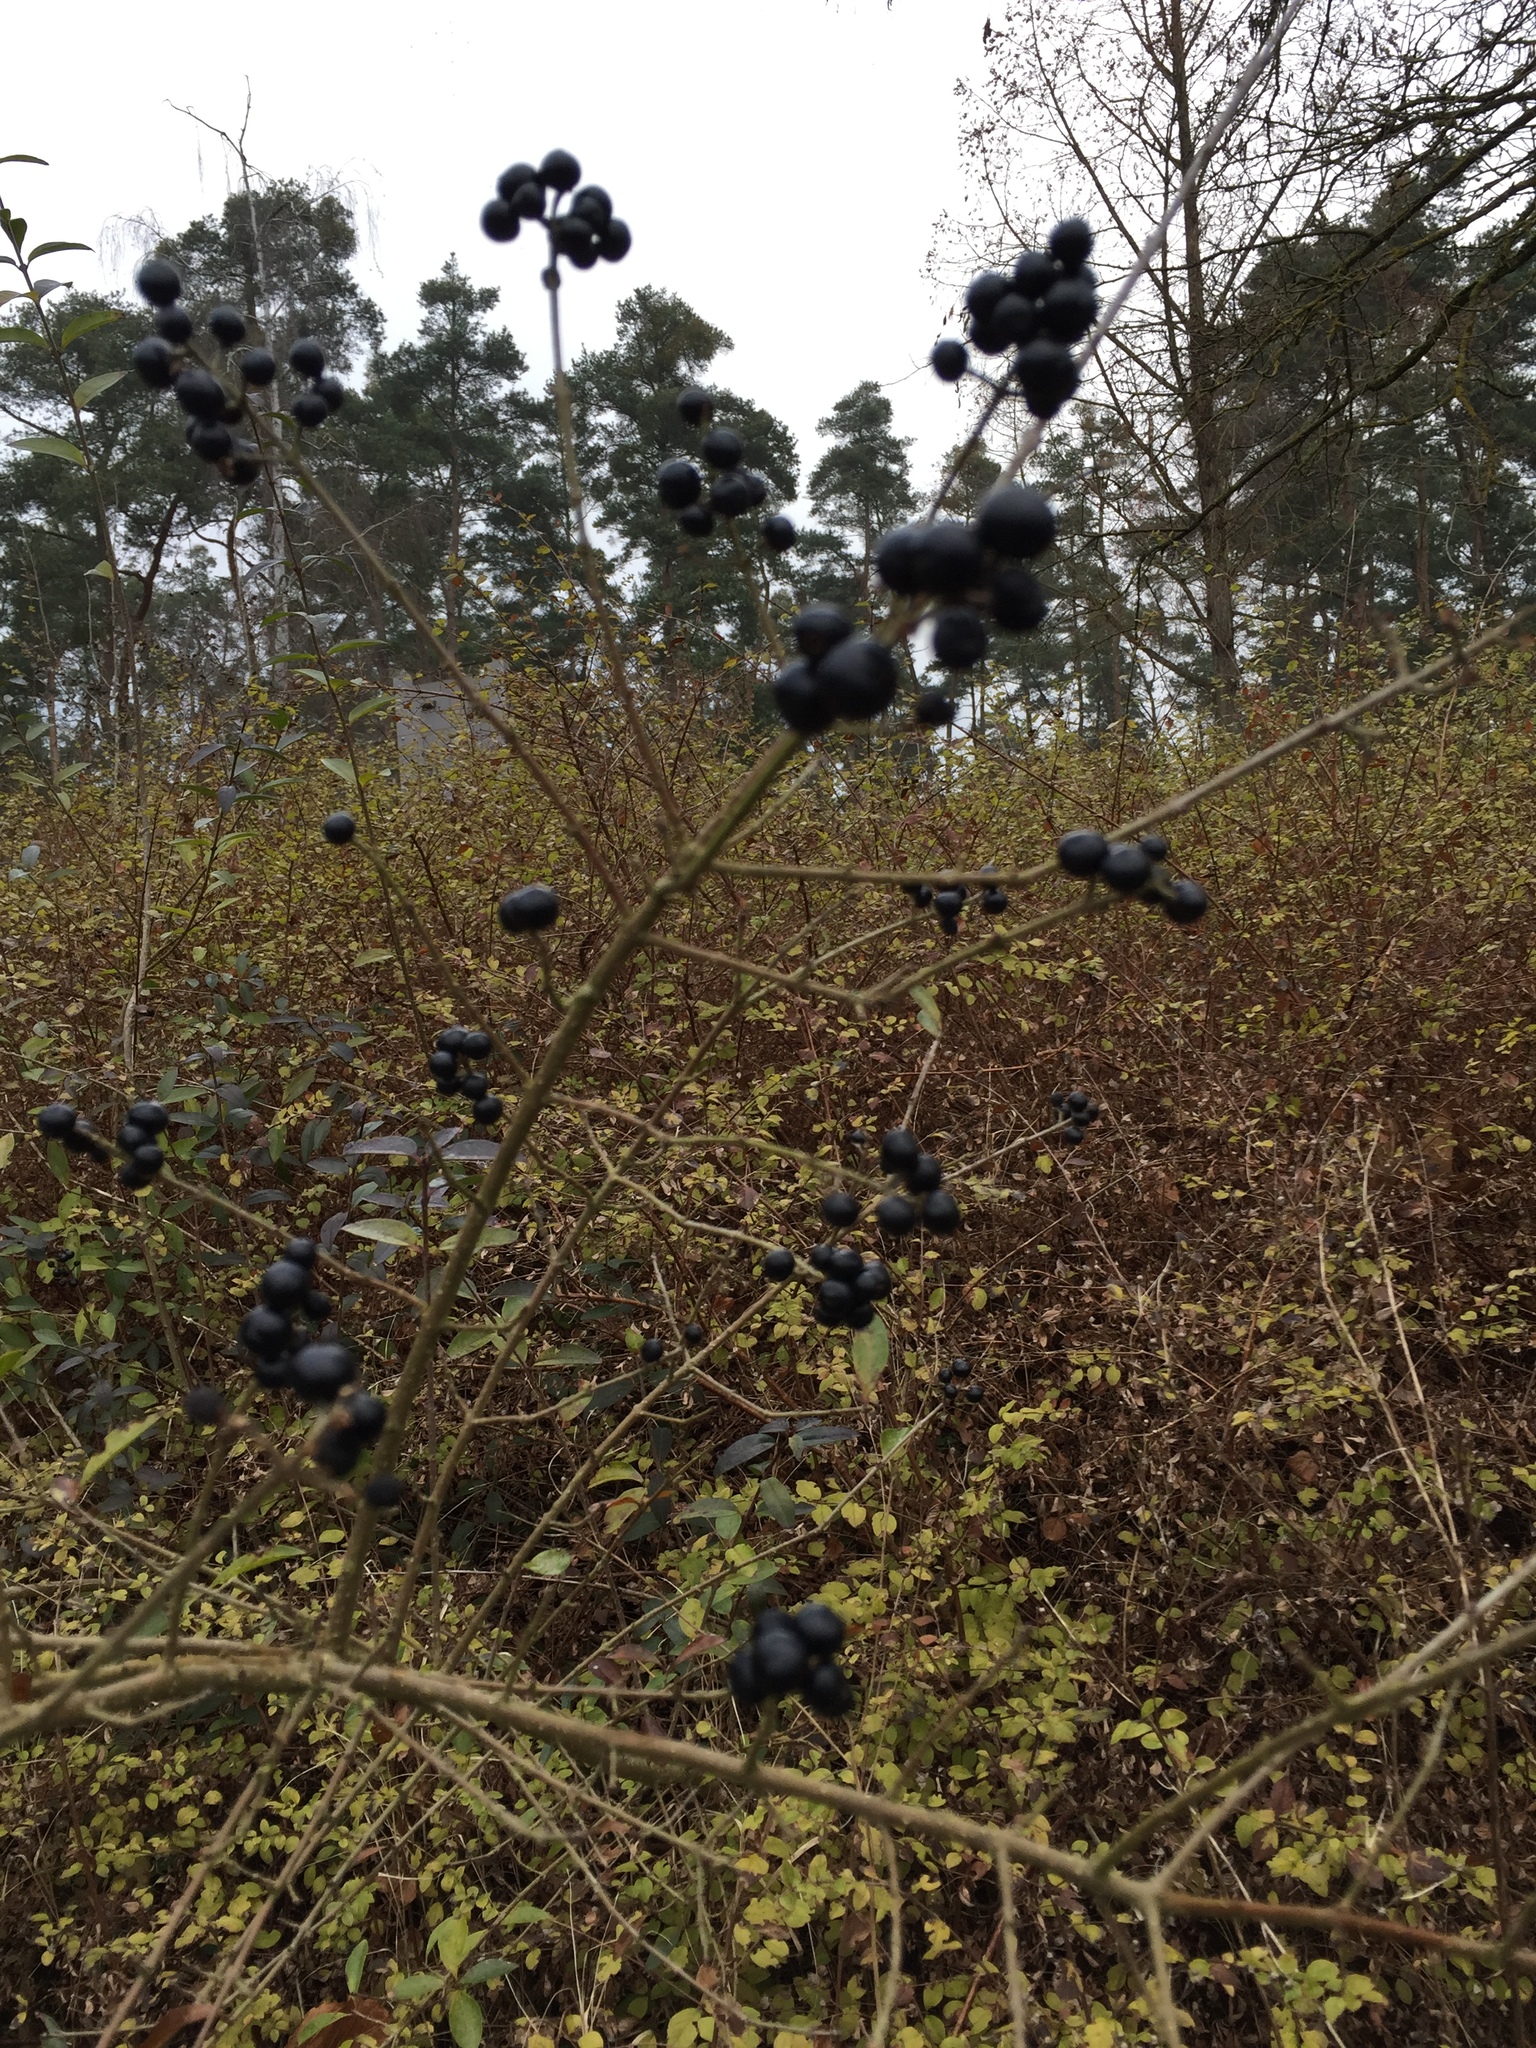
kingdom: Plantae
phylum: Tracheophyta
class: Magnoliopsida
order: Lamiales
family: Oleaceae
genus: Ligustrum
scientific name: Ligustrum vulgare
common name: Wild privet
